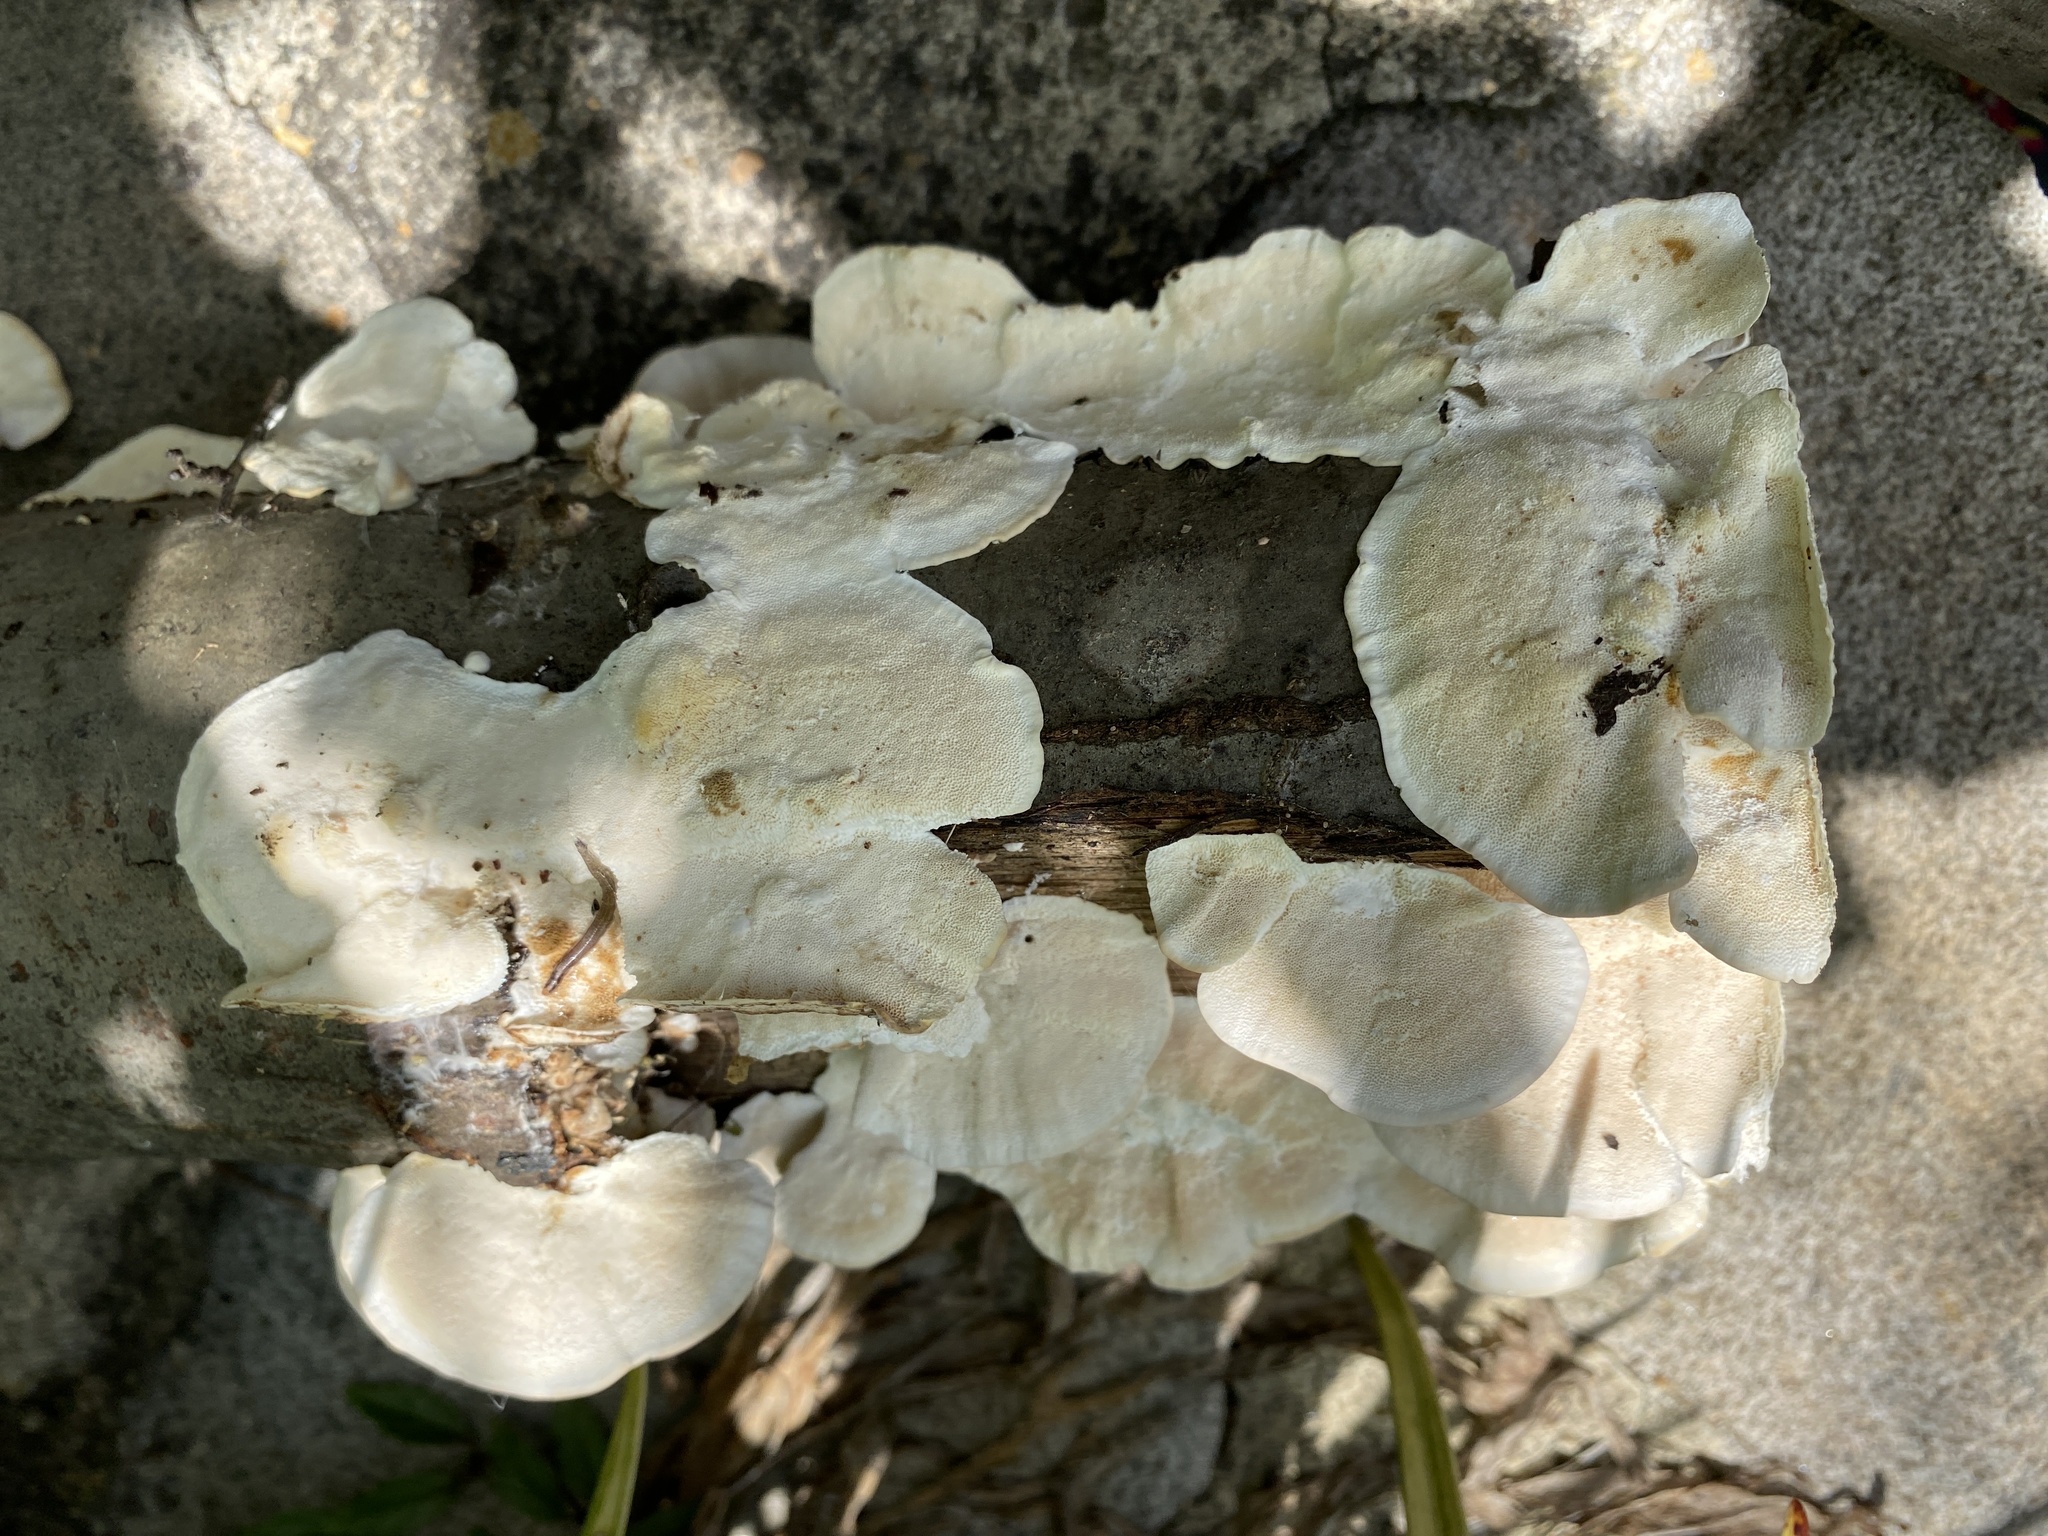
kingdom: Fungi
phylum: Basidiomycota
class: Agaricomycetes
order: Polyporales
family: Polyporaceae
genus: Trametes
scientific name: Trametes versicolor
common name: Turkeytail
